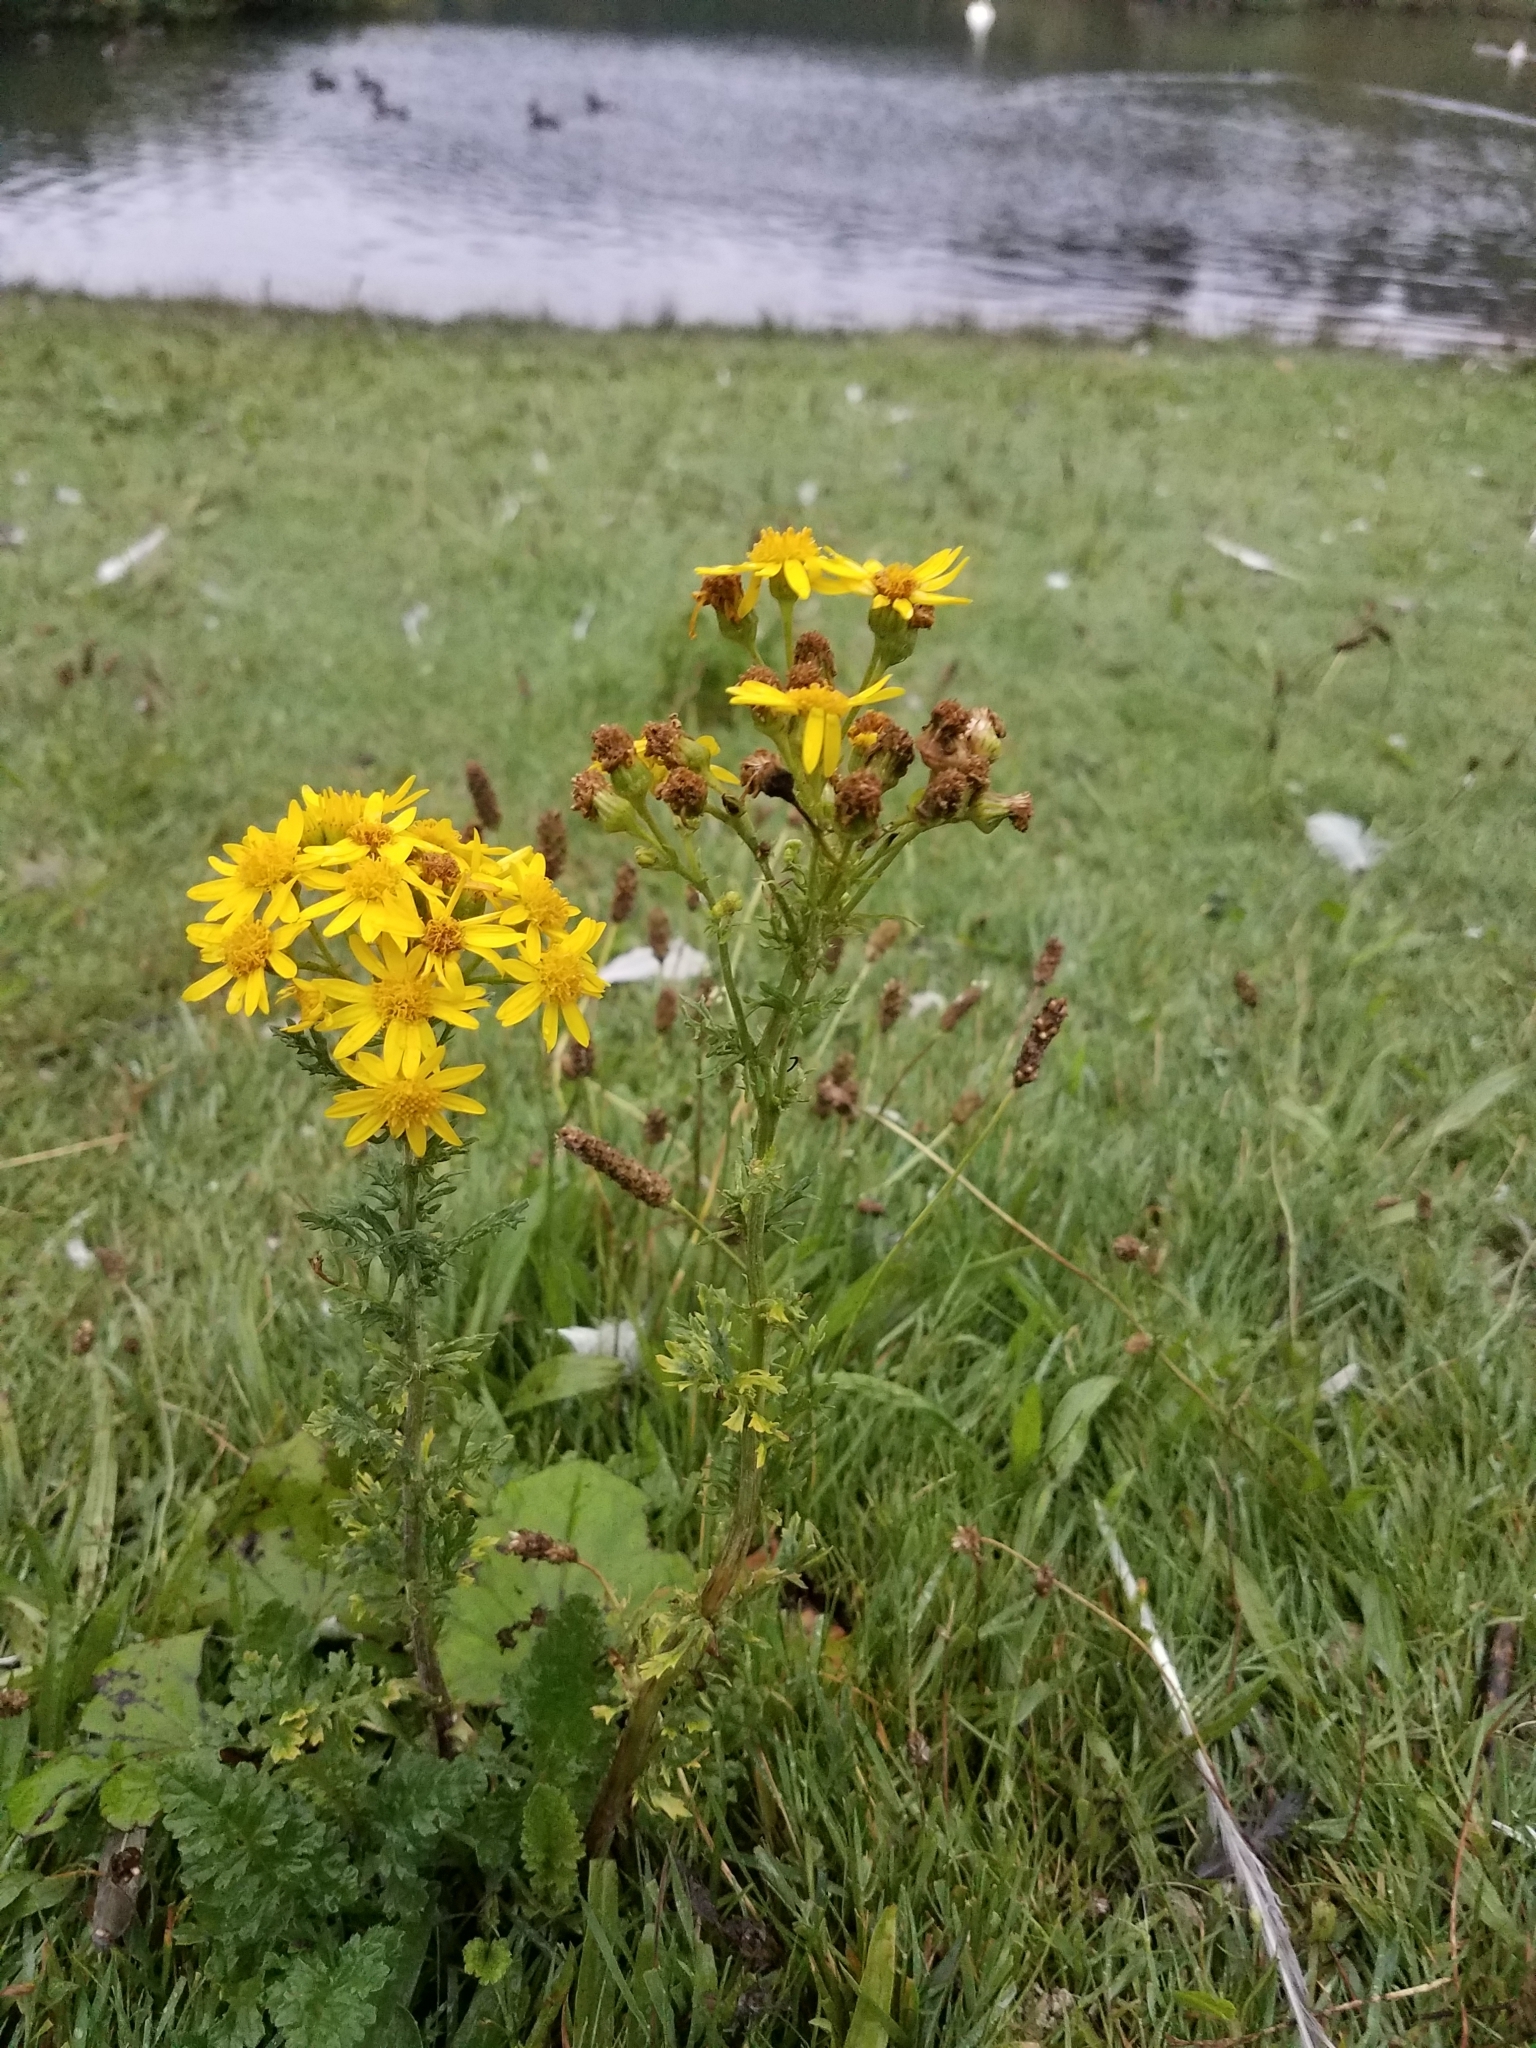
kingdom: Plantae
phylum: Tracheophyta
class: Magnoliopsida
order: Asterales
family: Asteraceae
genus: Jacobaea
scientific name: Jacobaea vulgaris
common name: Stinking willie
